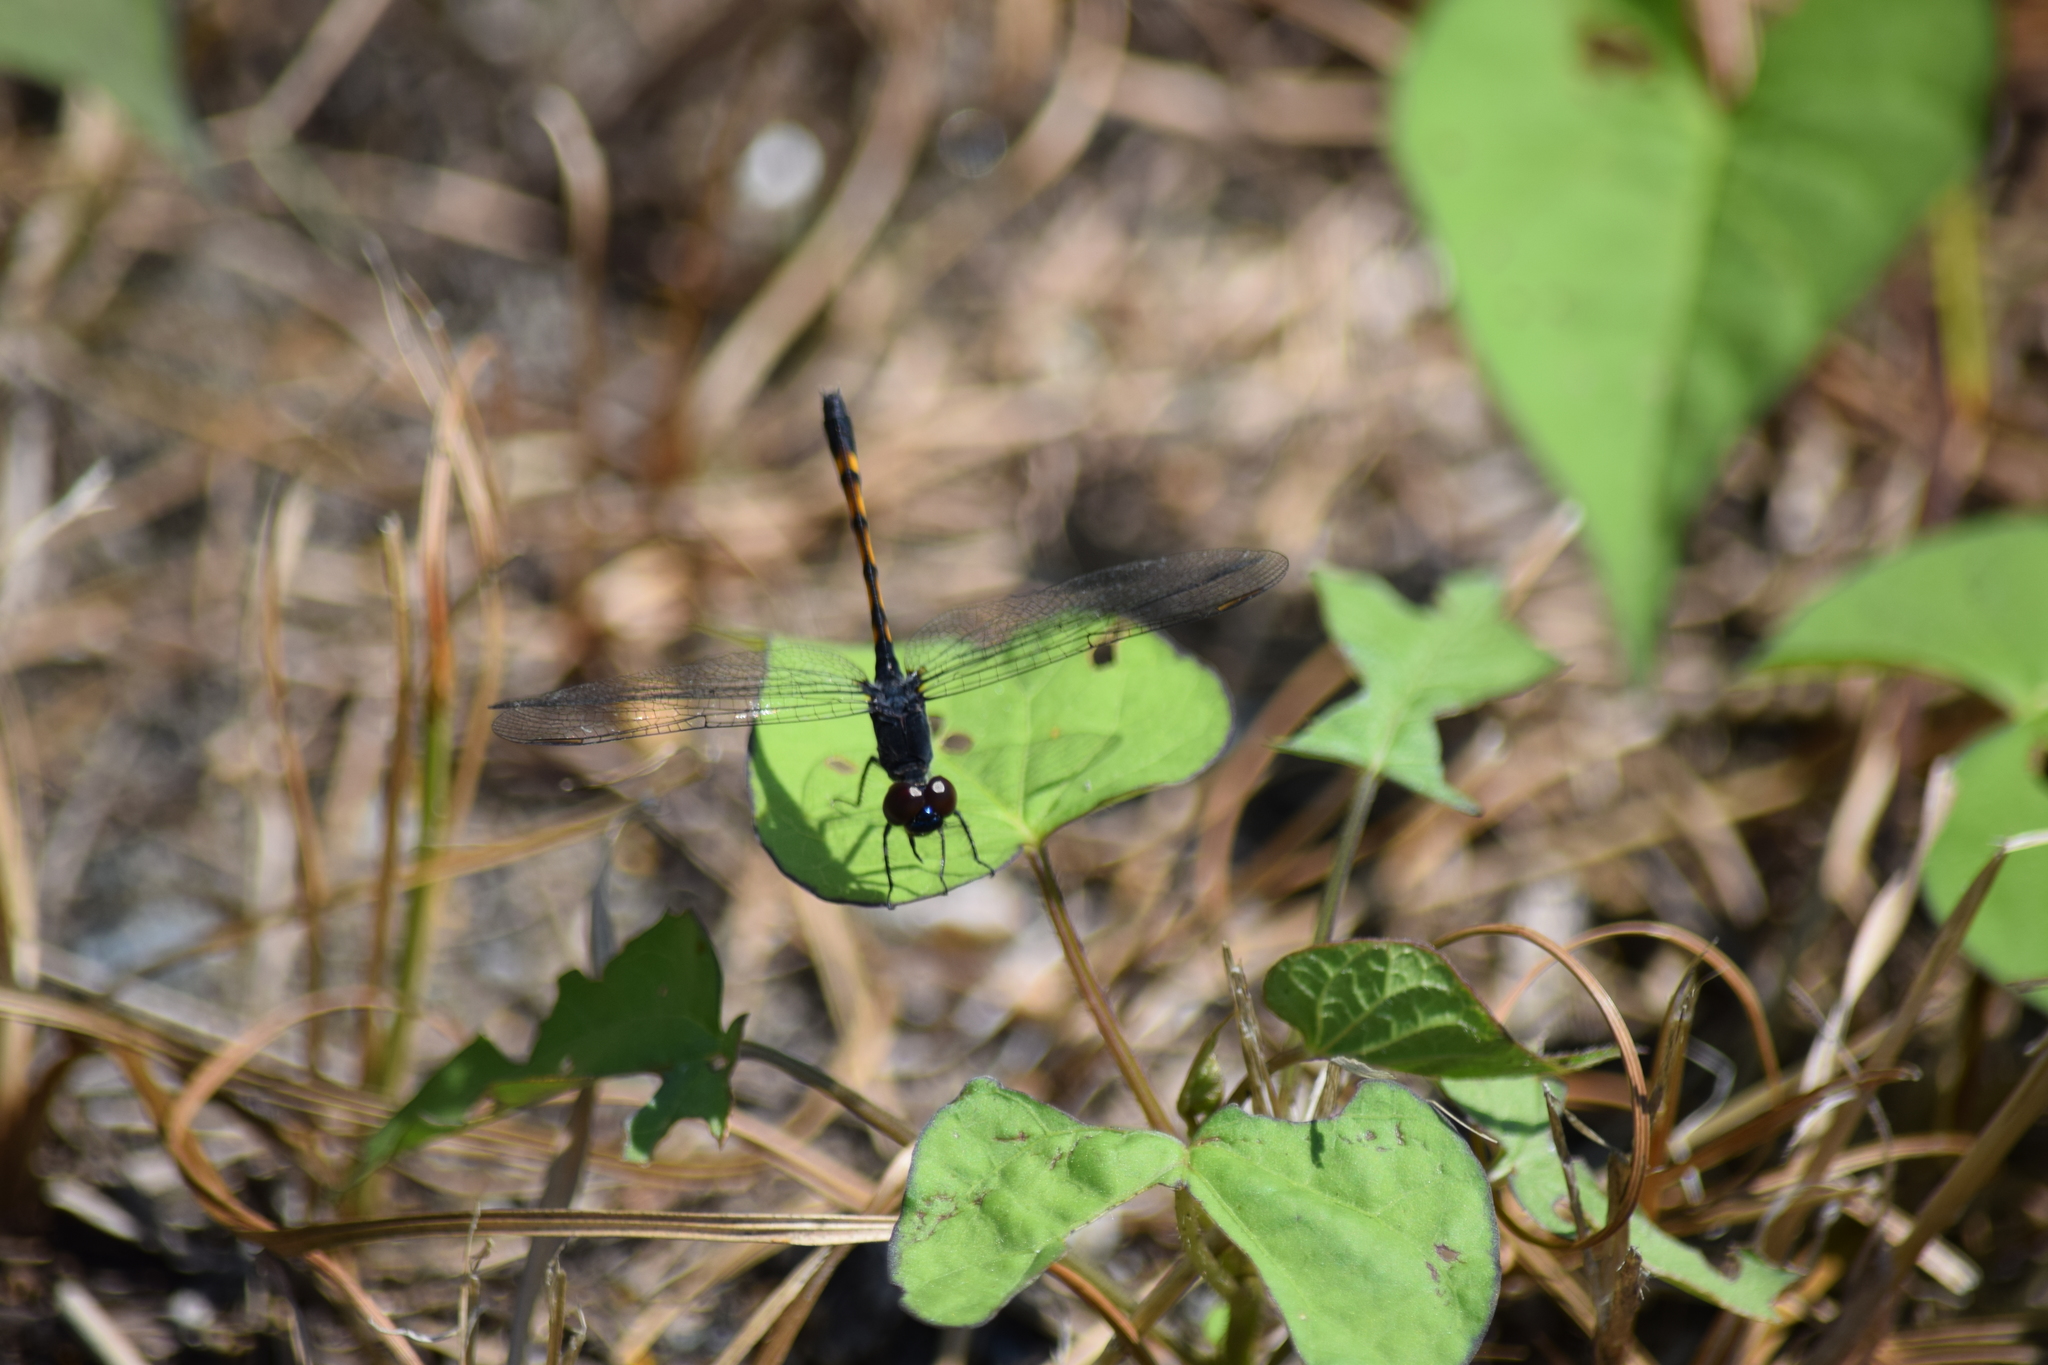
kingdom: Animalia
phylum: Arthropoda
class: Insecta
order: Odonata
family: Libellulidae
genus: Erythrodiplax
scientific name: Erythrodiplax berenice
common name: Seaside dragonlet
